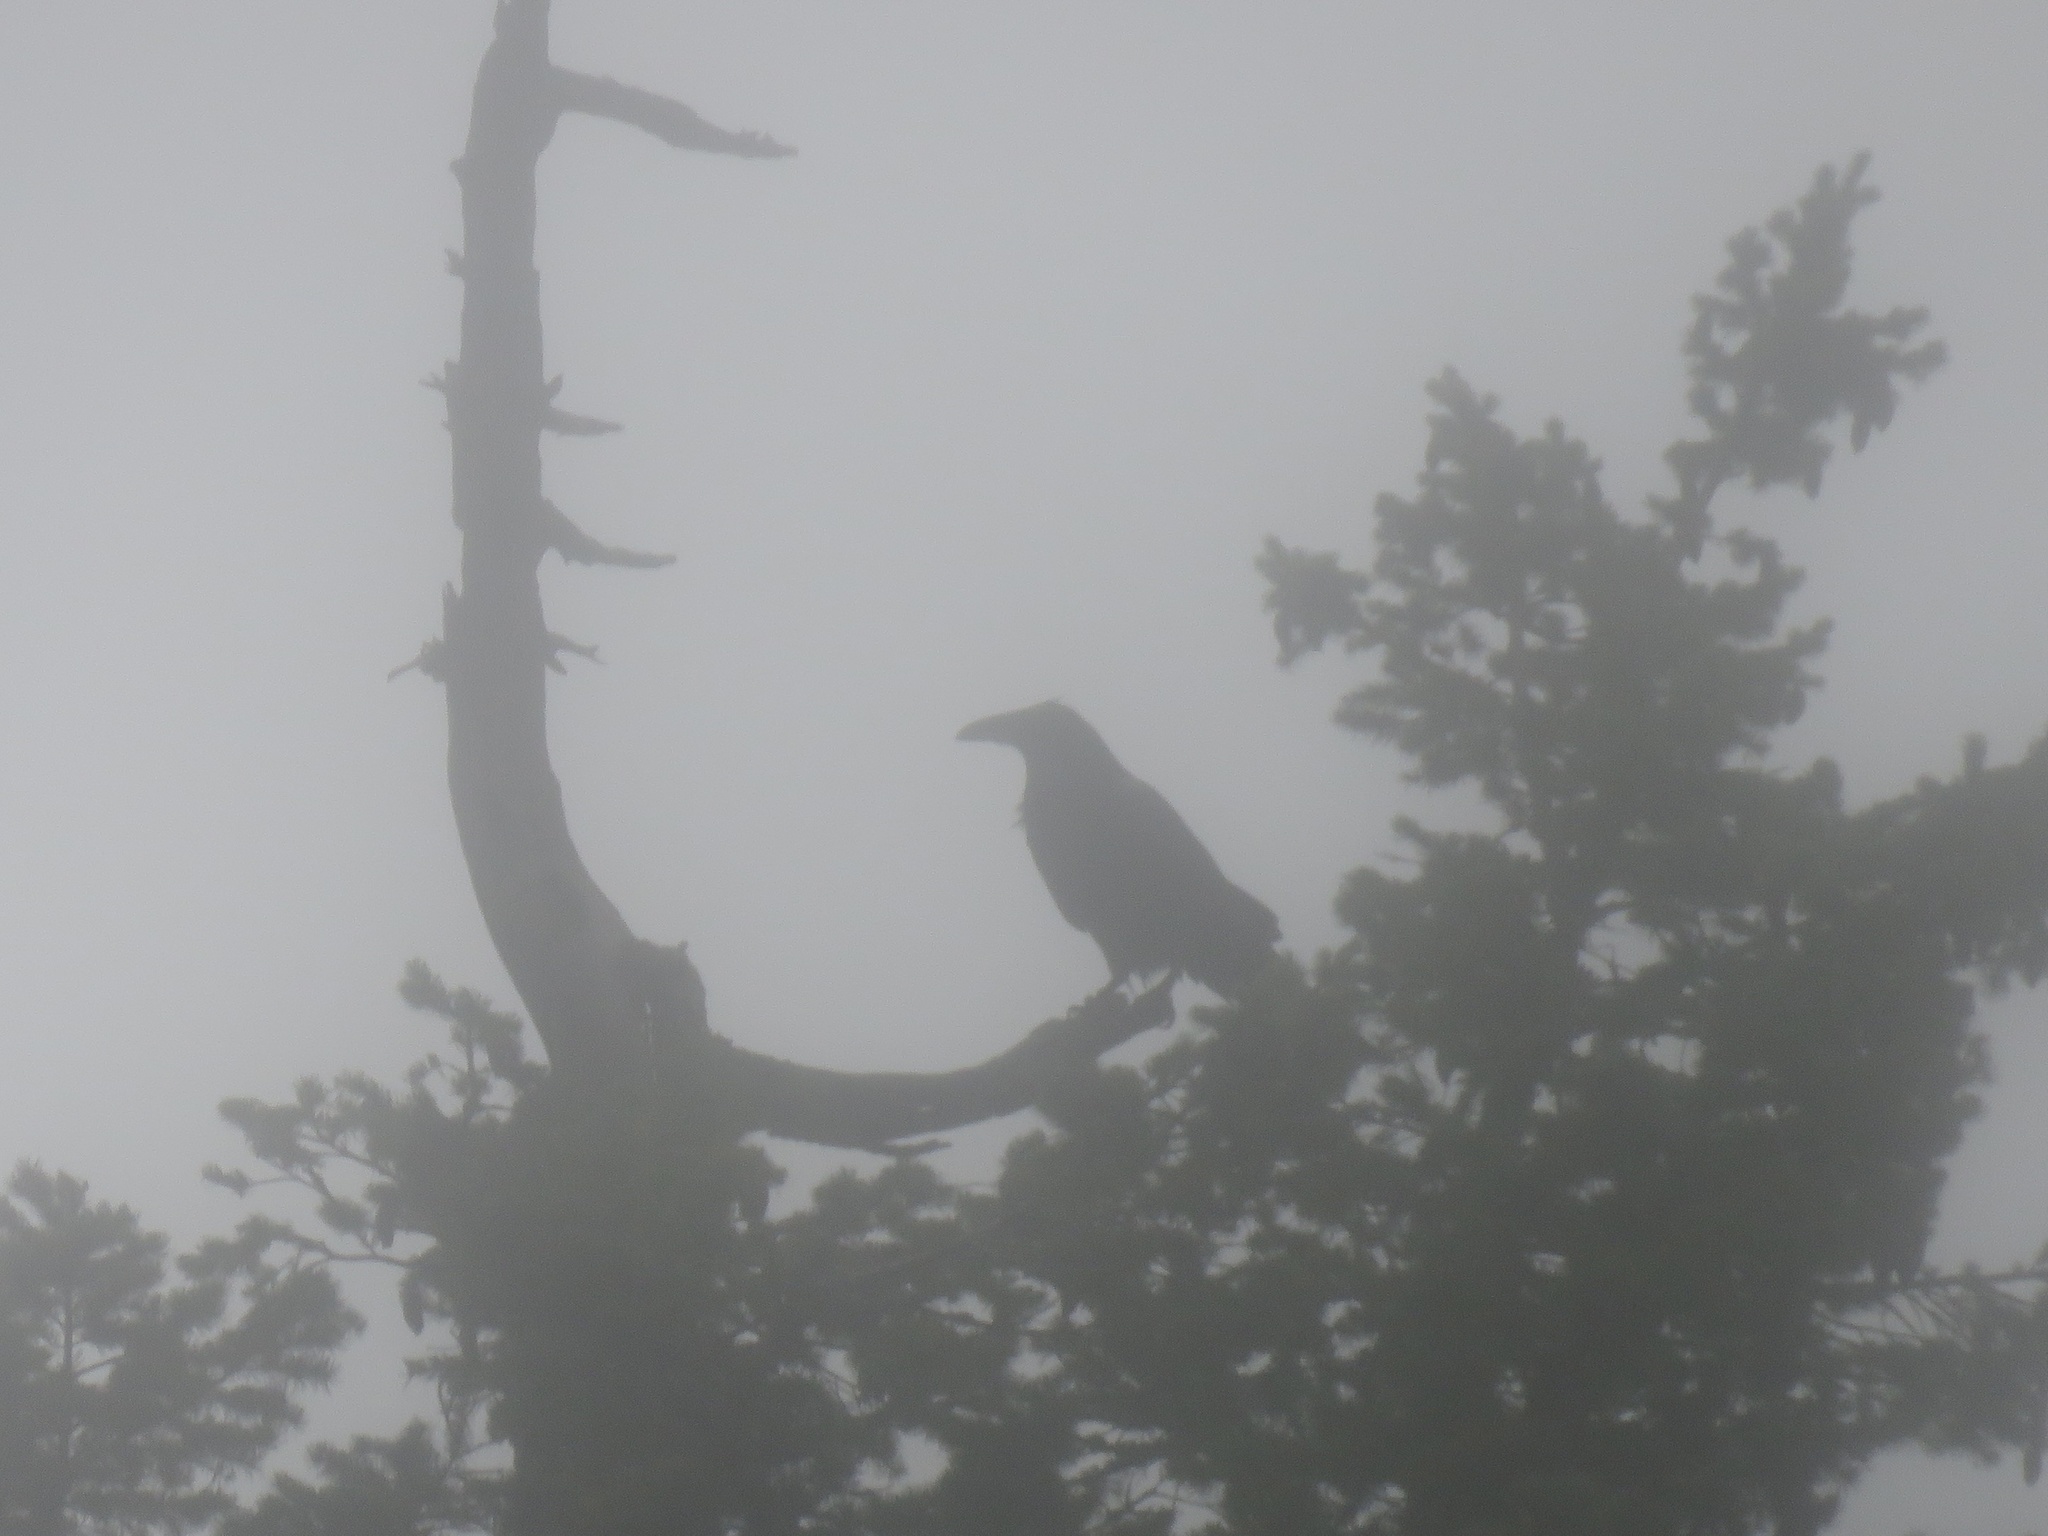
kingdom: Animalia
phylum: Chordata
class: Aves
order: Passeriformes
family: Corvidae
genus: Corvus
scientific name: Corvus corax
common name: Common raven
